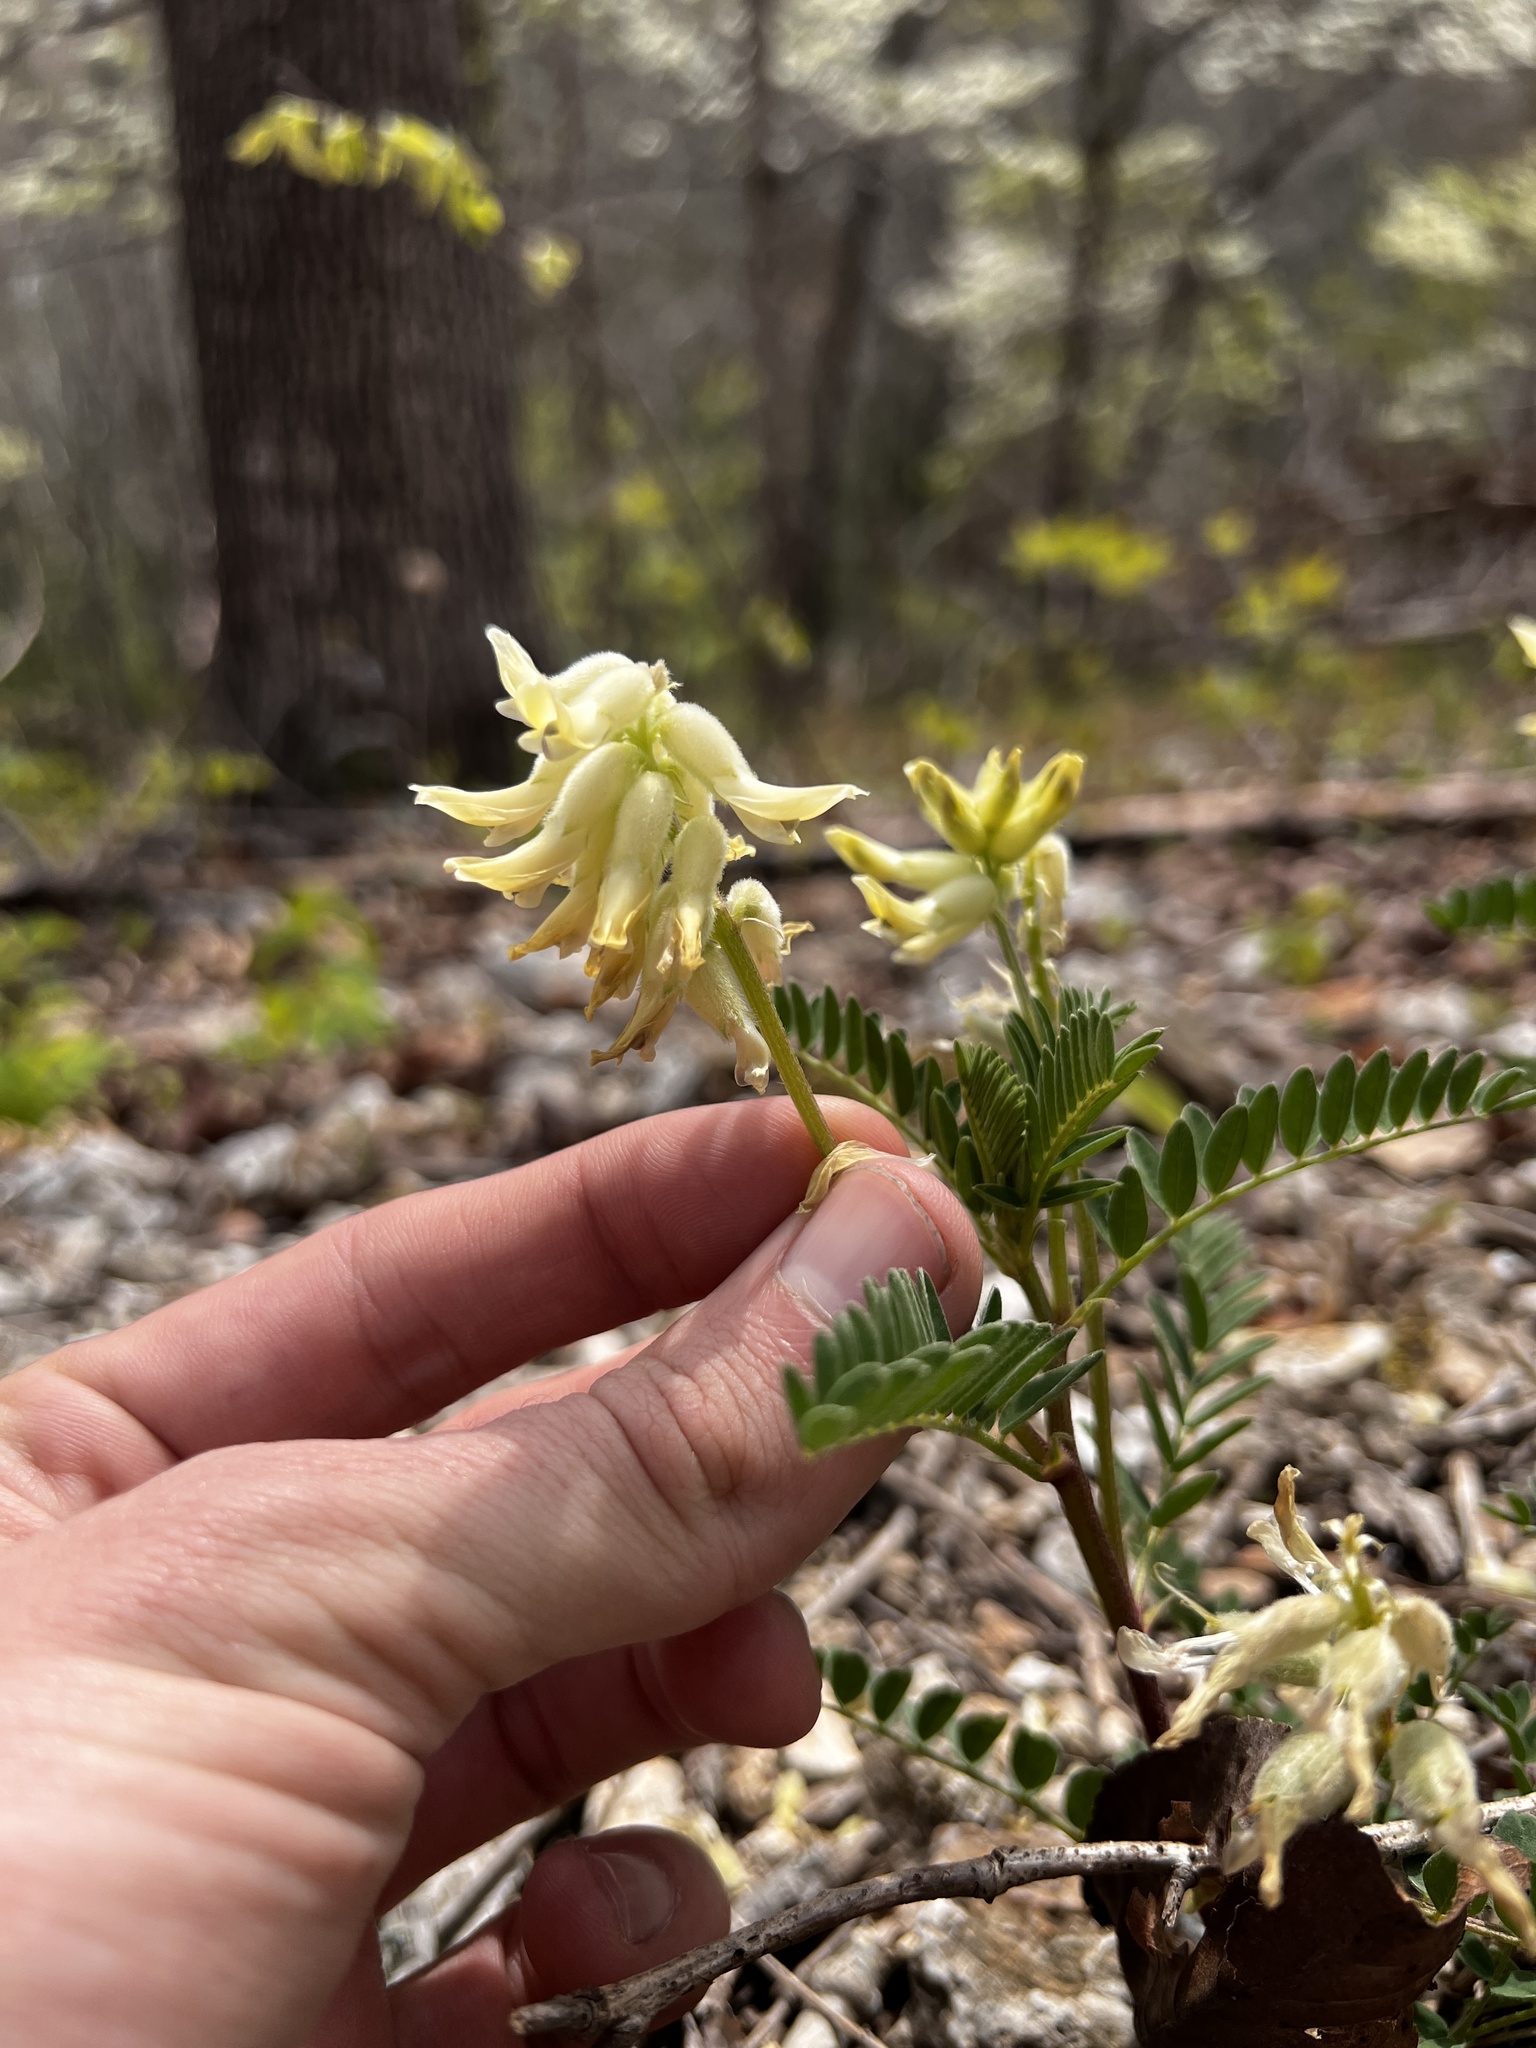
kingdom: Plantae
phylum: Tracheophyta
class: Magnoliopsida
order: Fabales
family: Fabaceae
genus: Astragalus
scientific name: Astragalus crassicarpus
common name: Ground-plum milk-vetch
